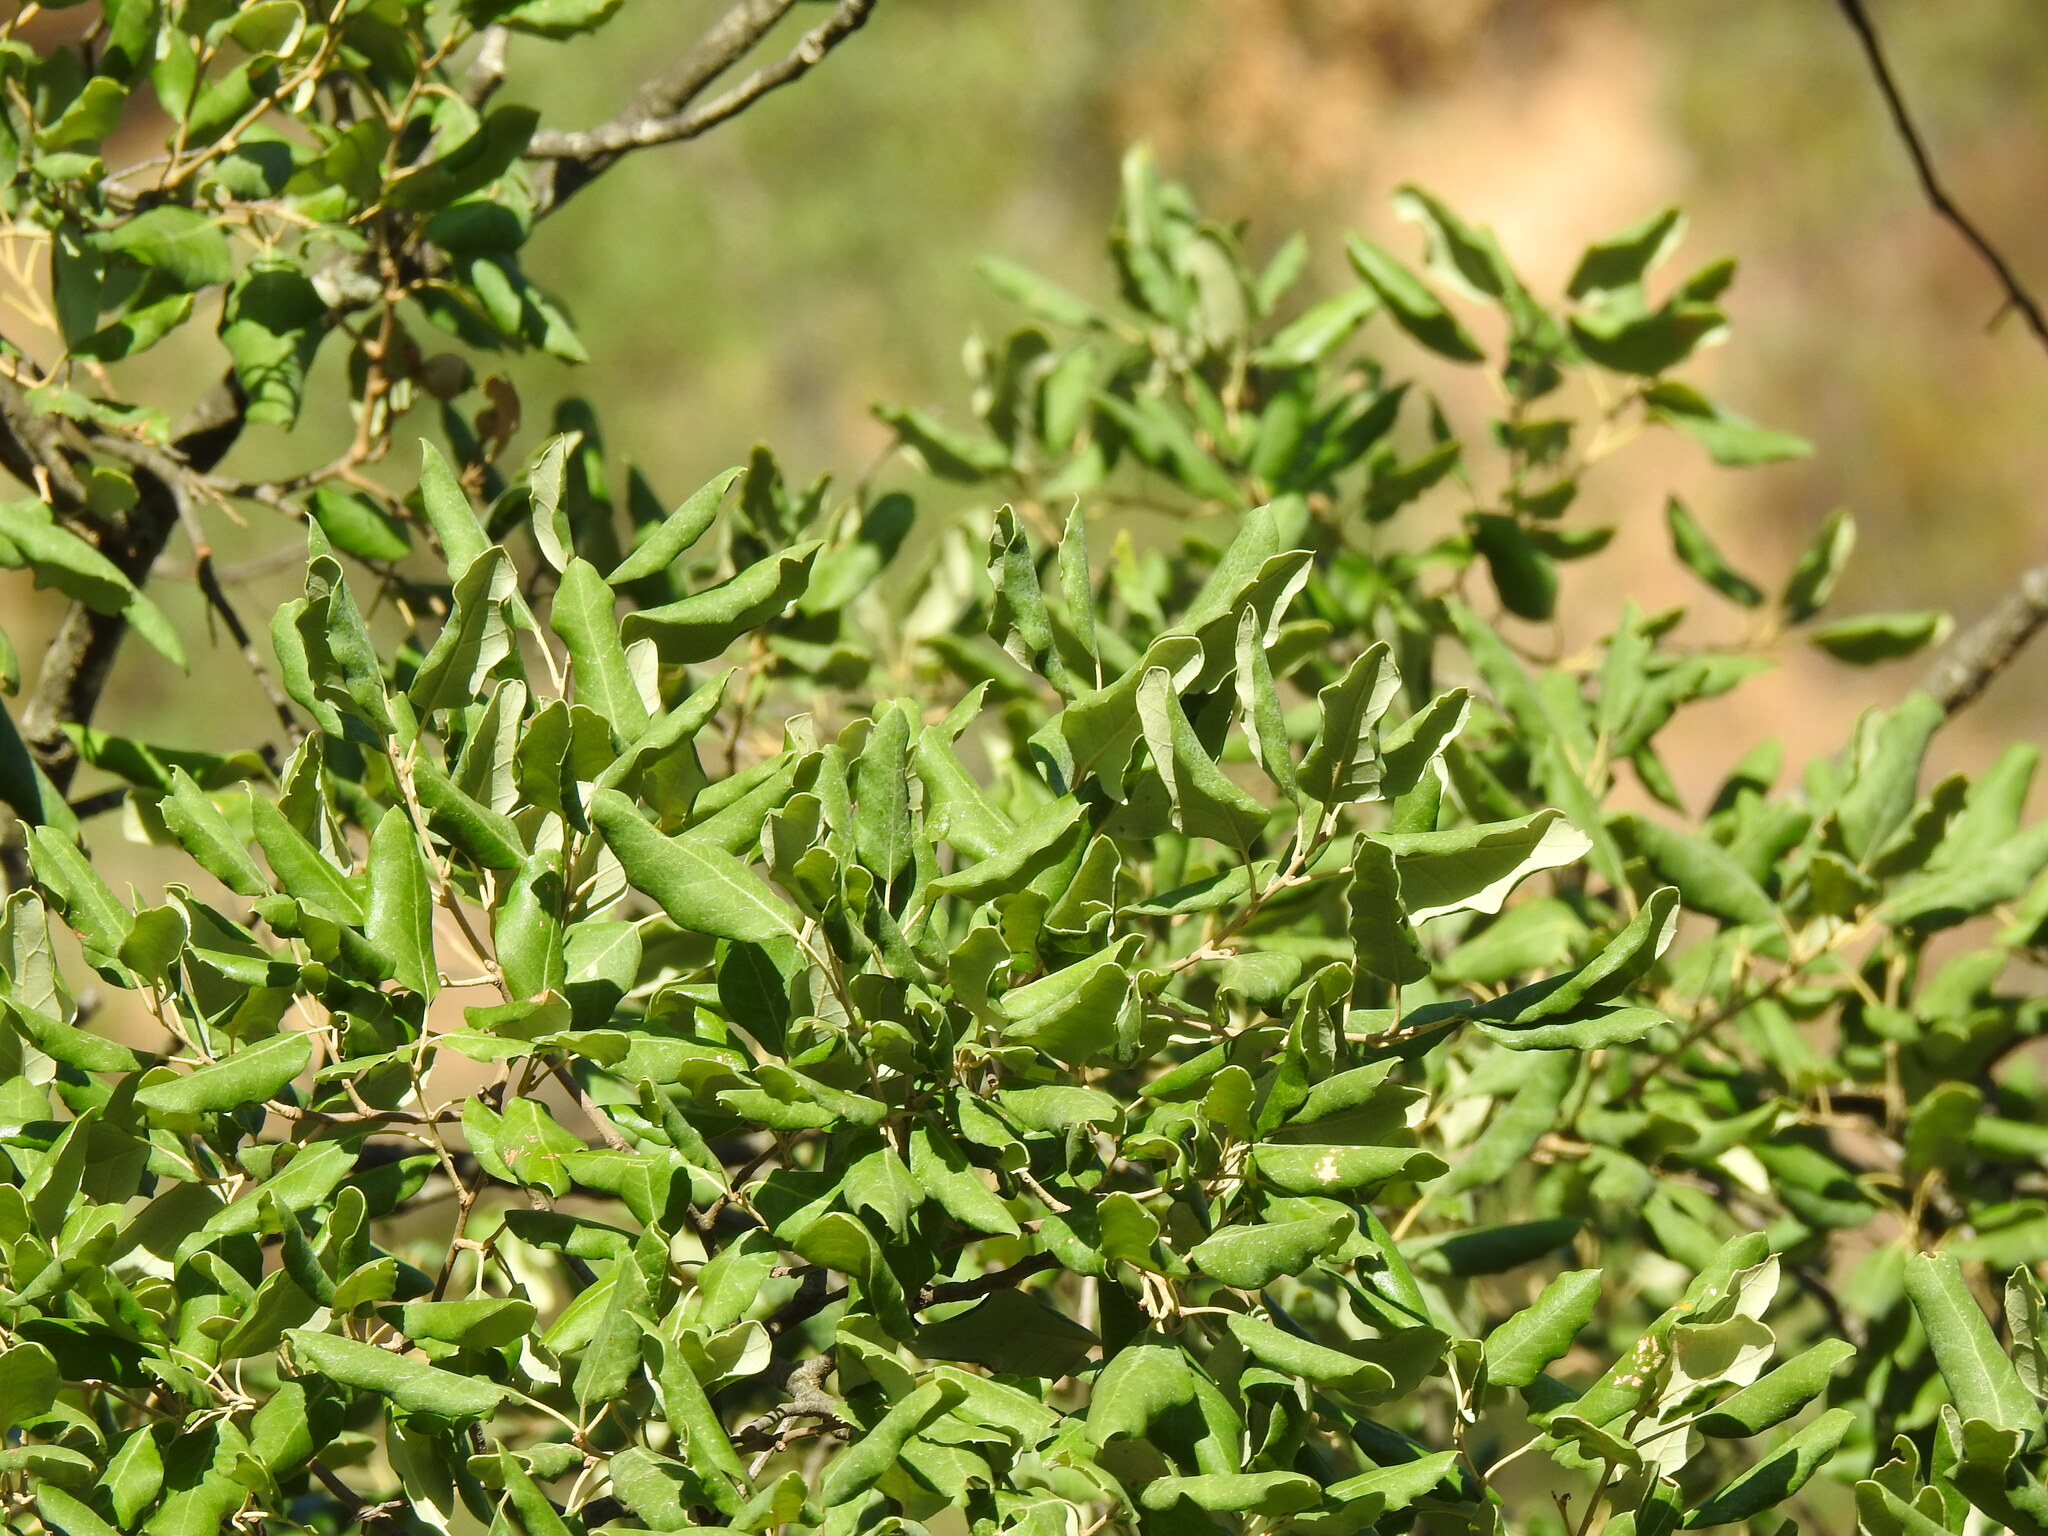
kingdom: Plantae
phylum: Tracheophyta
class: Magnoliopsida
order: Fagales
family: Fagaceae
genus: Quercus
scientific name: Quercus suber
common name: Cork oak
